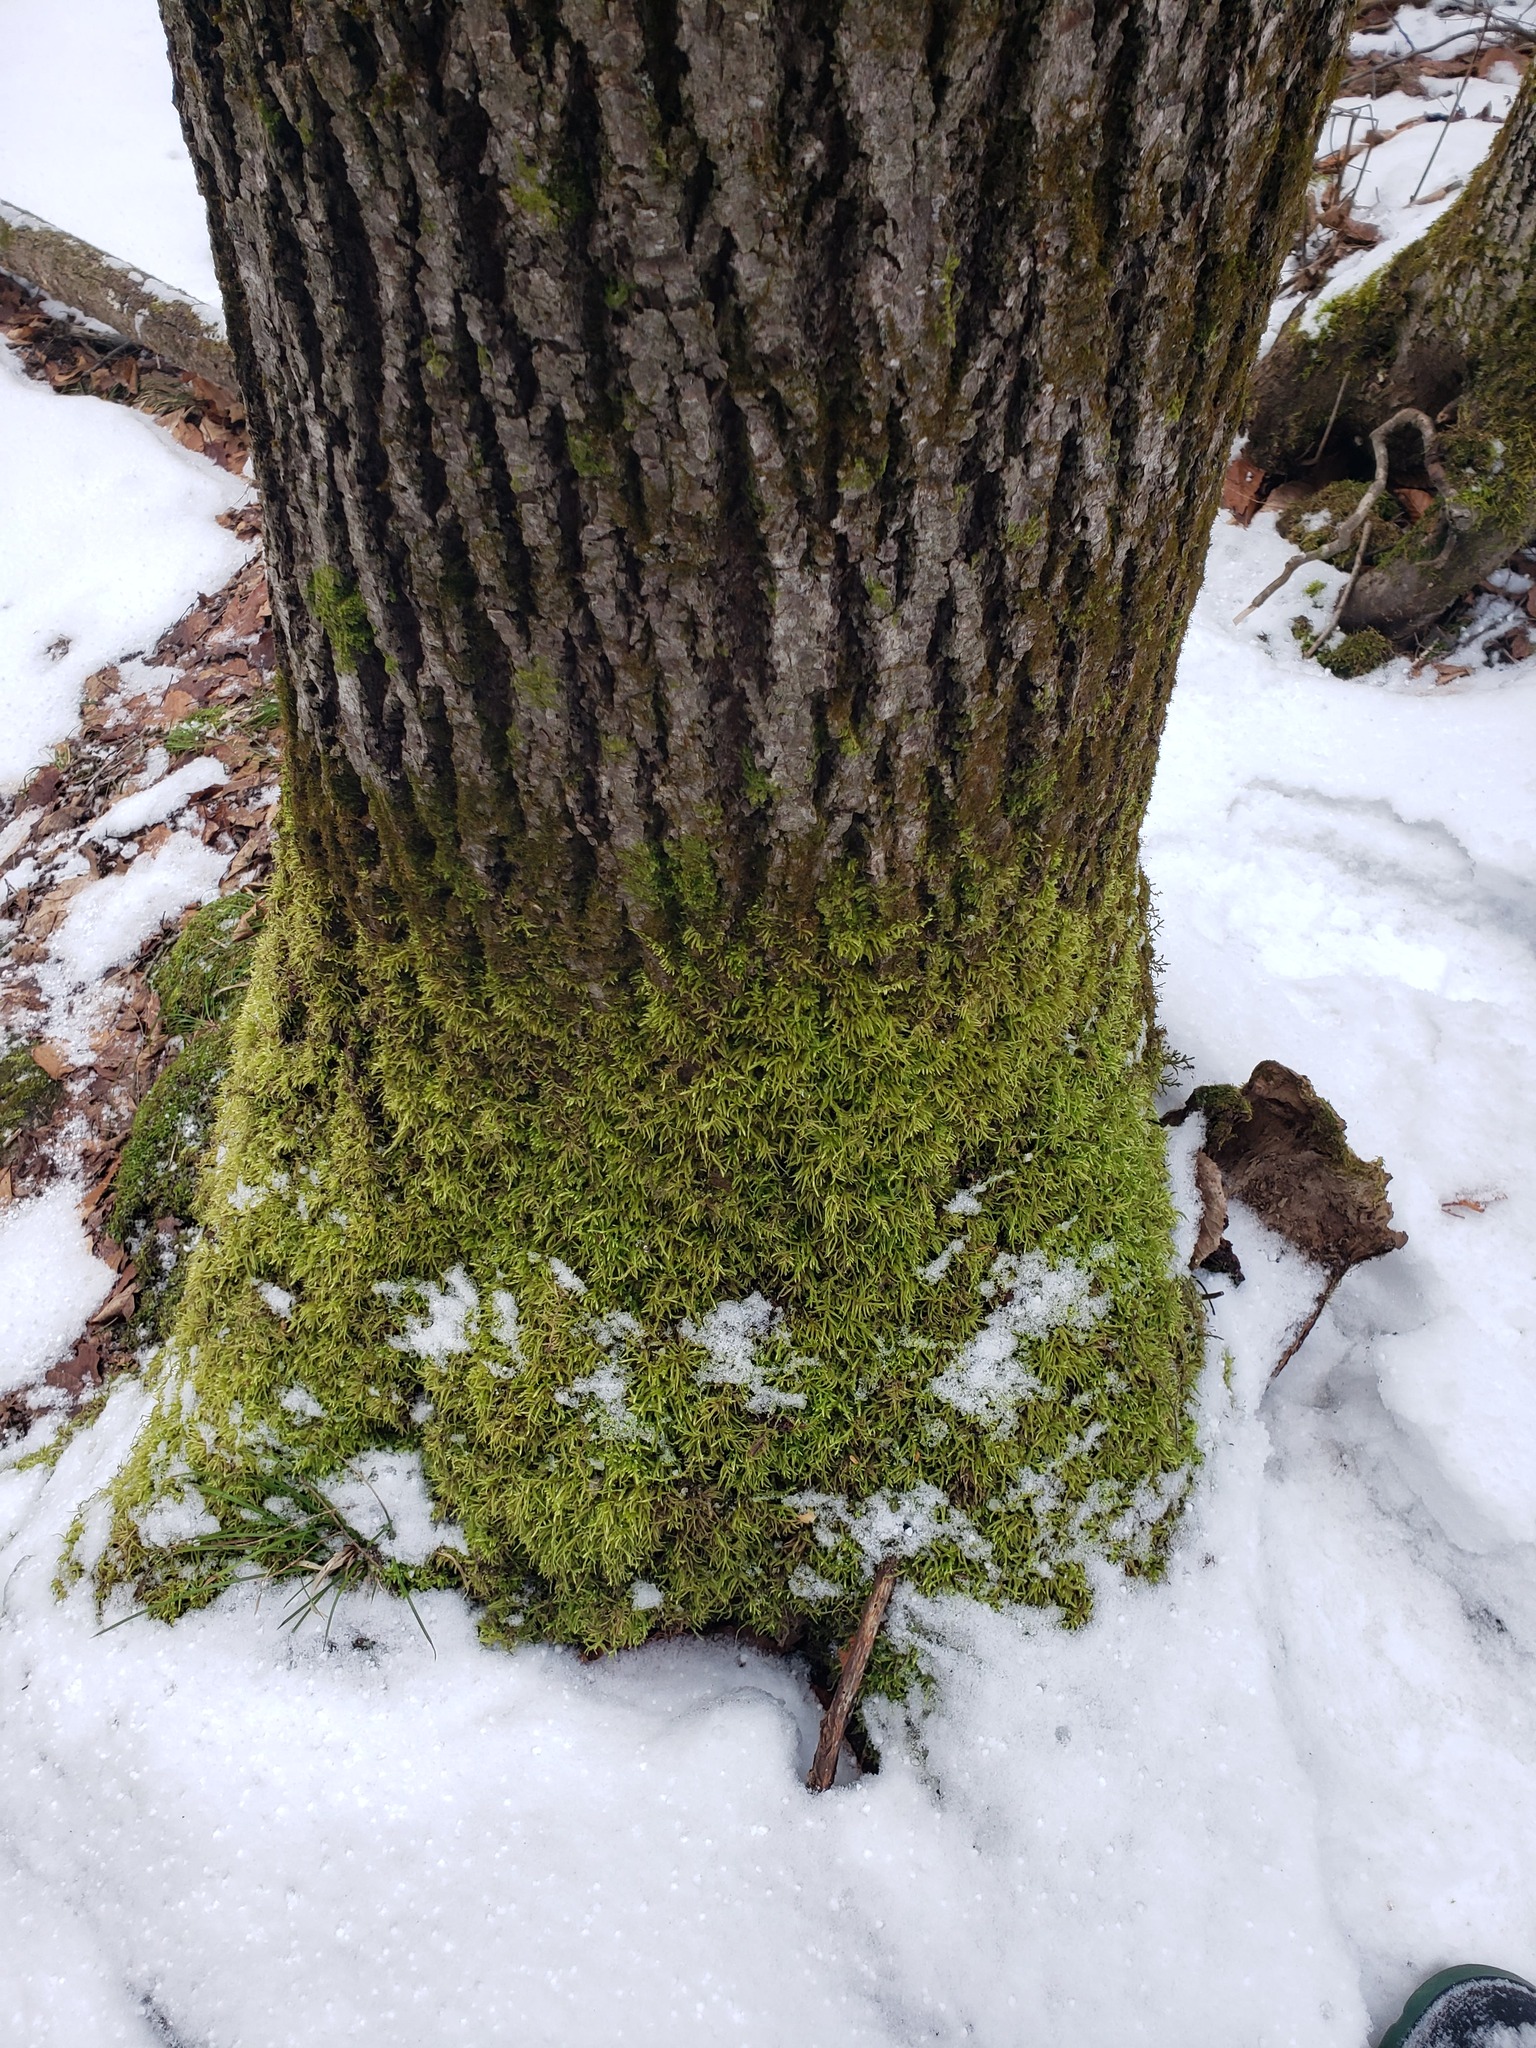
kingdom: Plantae
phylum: Bryophyta
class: Bryopsida
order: Hypnales
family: Callicladiaceae
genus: Callicladium
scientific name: Callicladium haldanianum
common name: Beautiful branch moss
